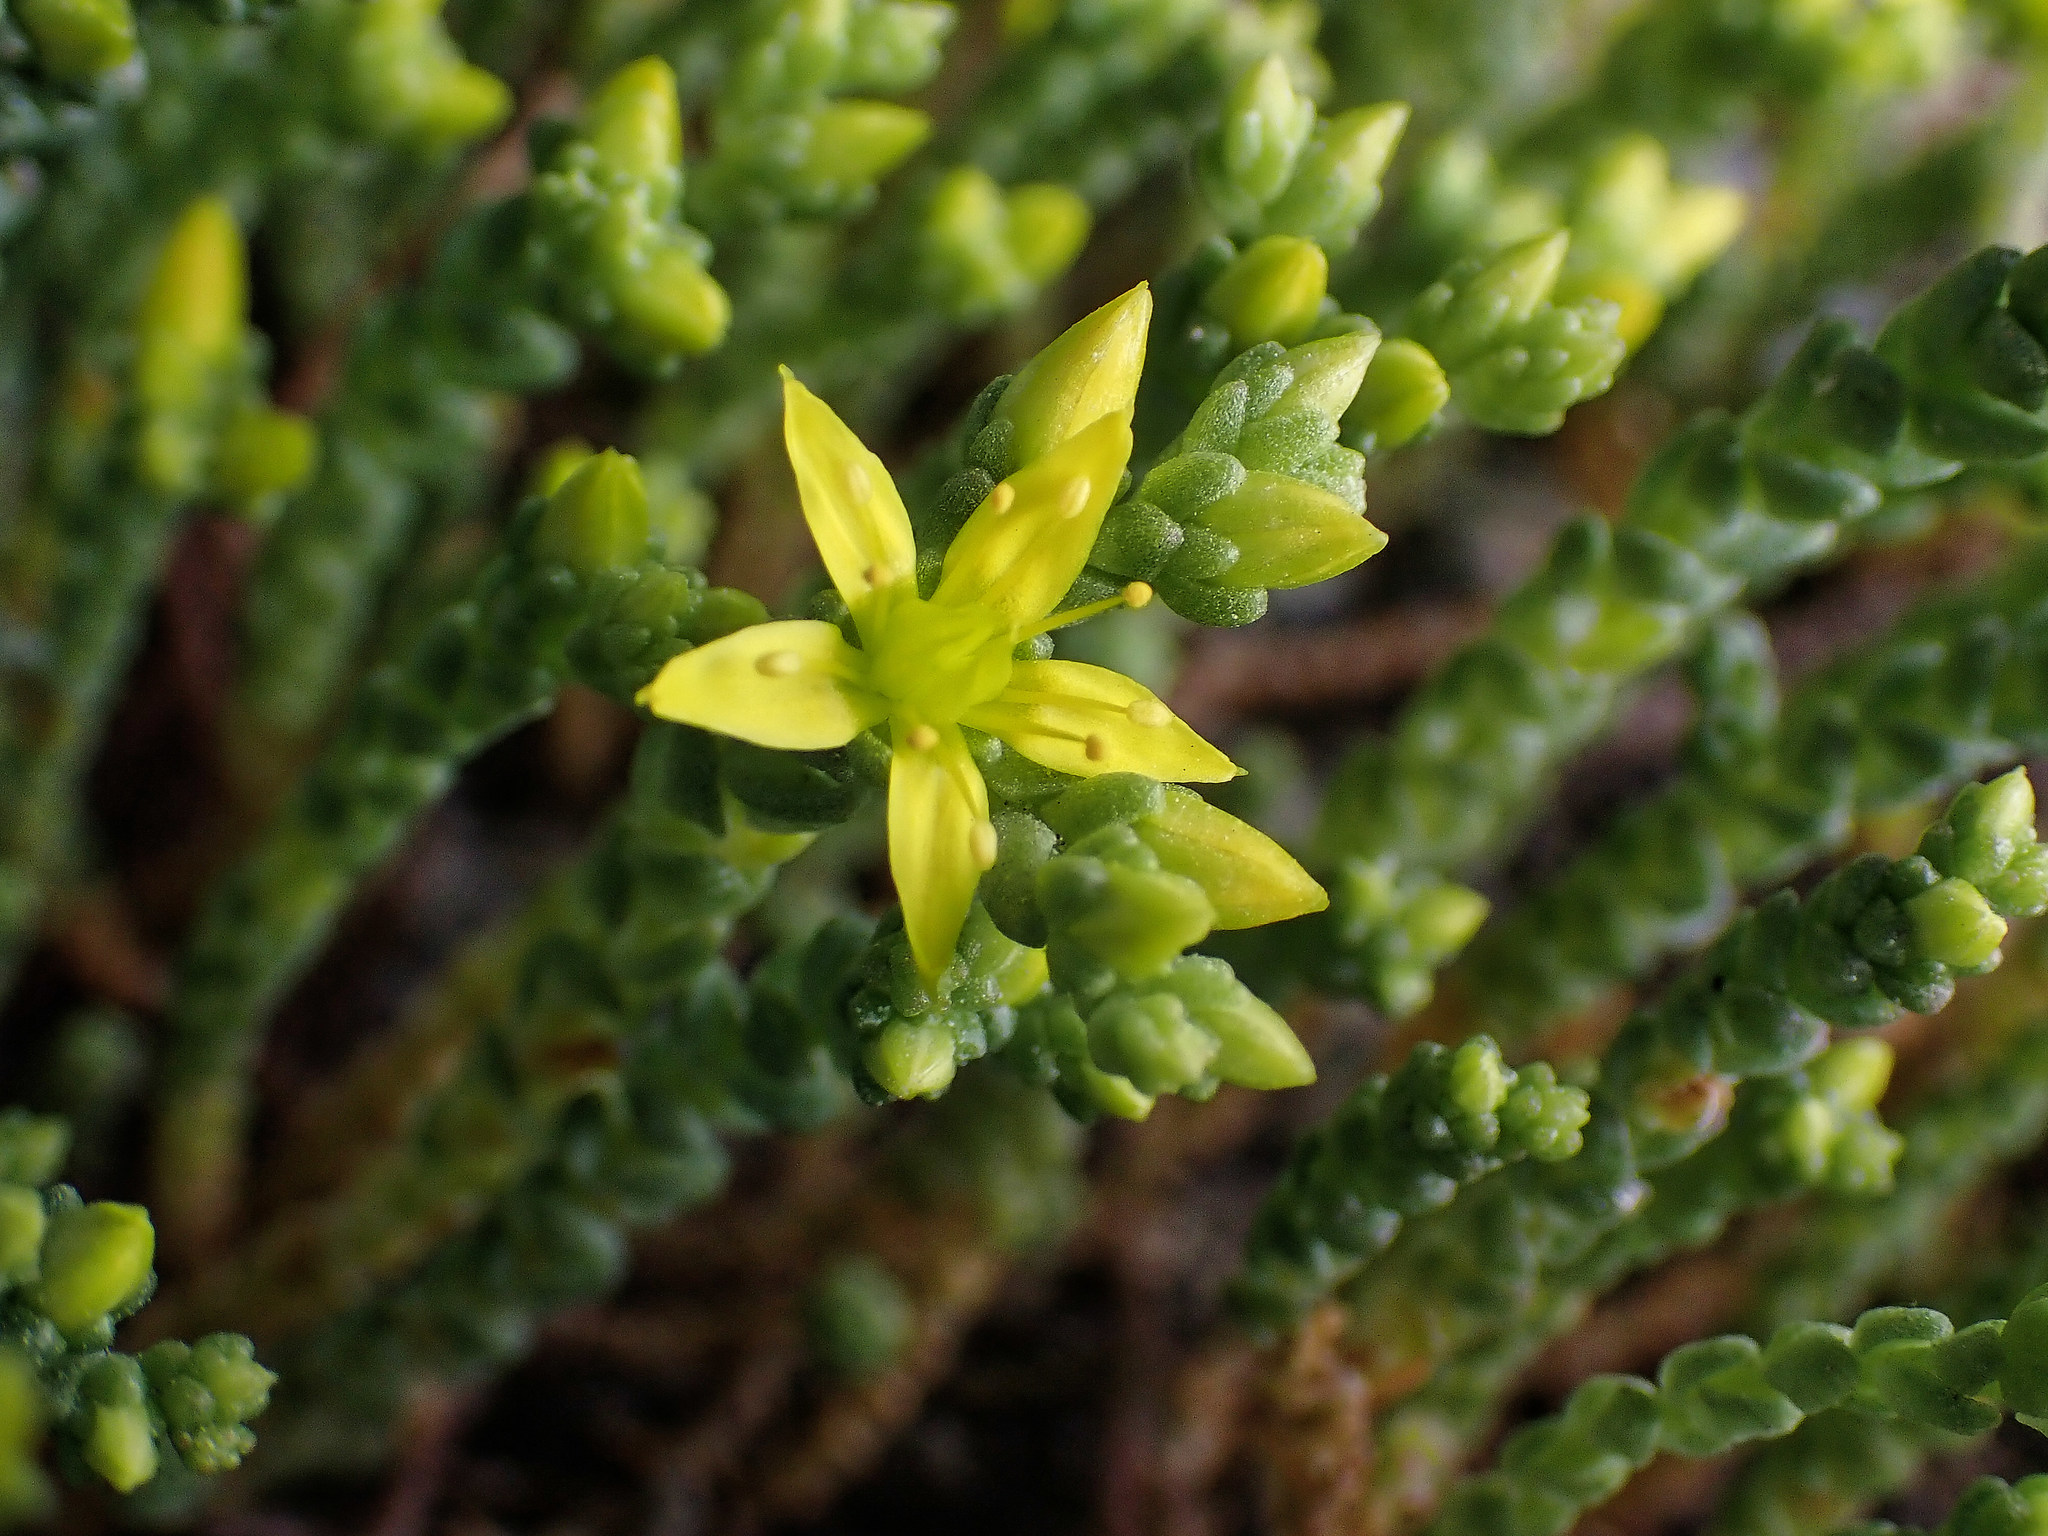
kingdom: Plantae
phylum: Tracheophyta
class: Magnoliopsida
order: Saxifragales
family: Crassulaceae
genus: Sedum
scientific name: Sedum acre
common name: Biting stonecrop
